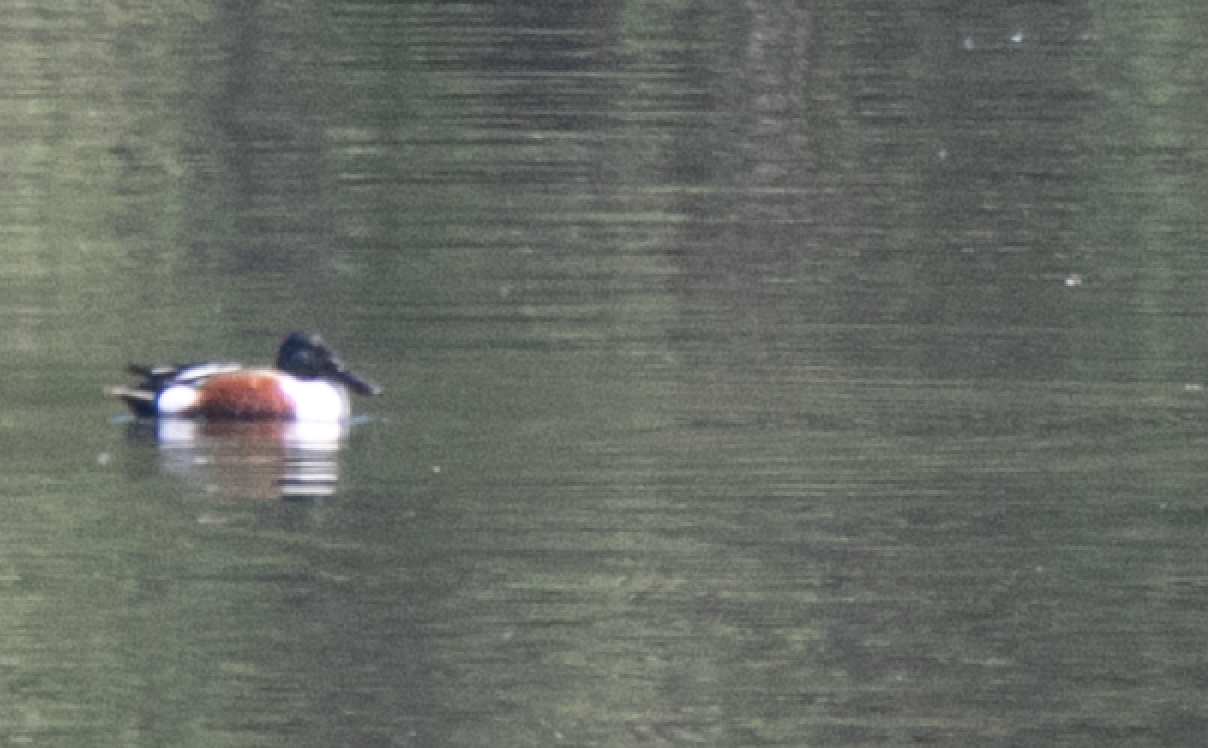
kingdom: Animalia
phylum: Chordata
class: Aves
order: Anseriformes
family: Anatidae
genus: Spatula
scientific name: Spatula clypeata
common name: Northern shoveler
